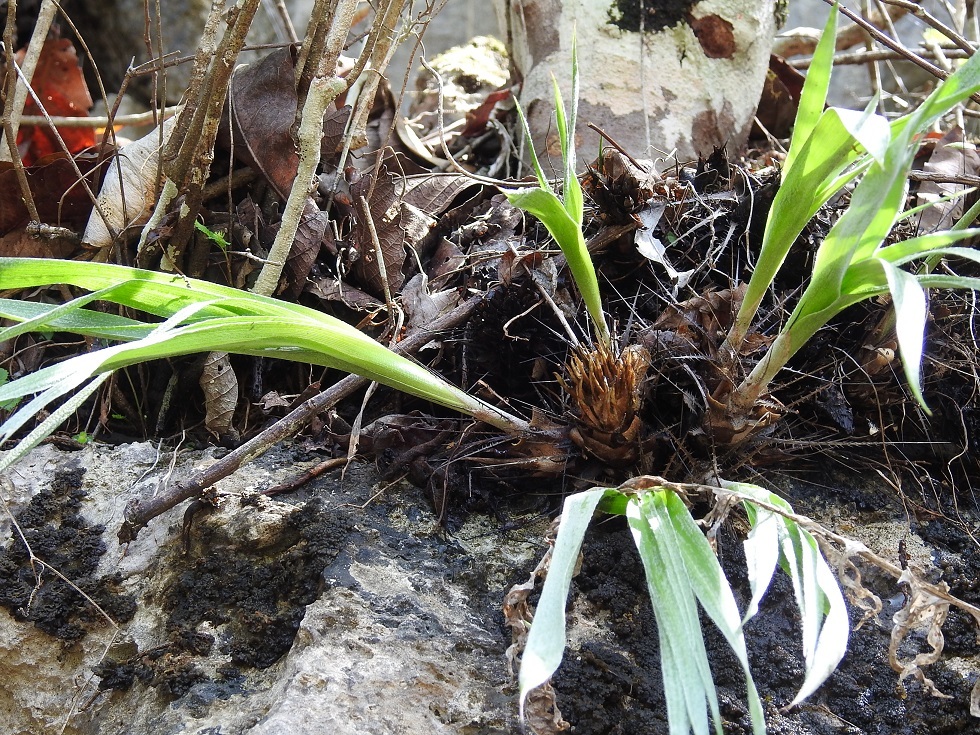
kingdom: Plantae
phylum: Tracheophyta
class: Liliopsida
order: Poales
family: Bromeliaceae
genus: Pitcairnia
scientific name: Pitcairnia heterophylla
